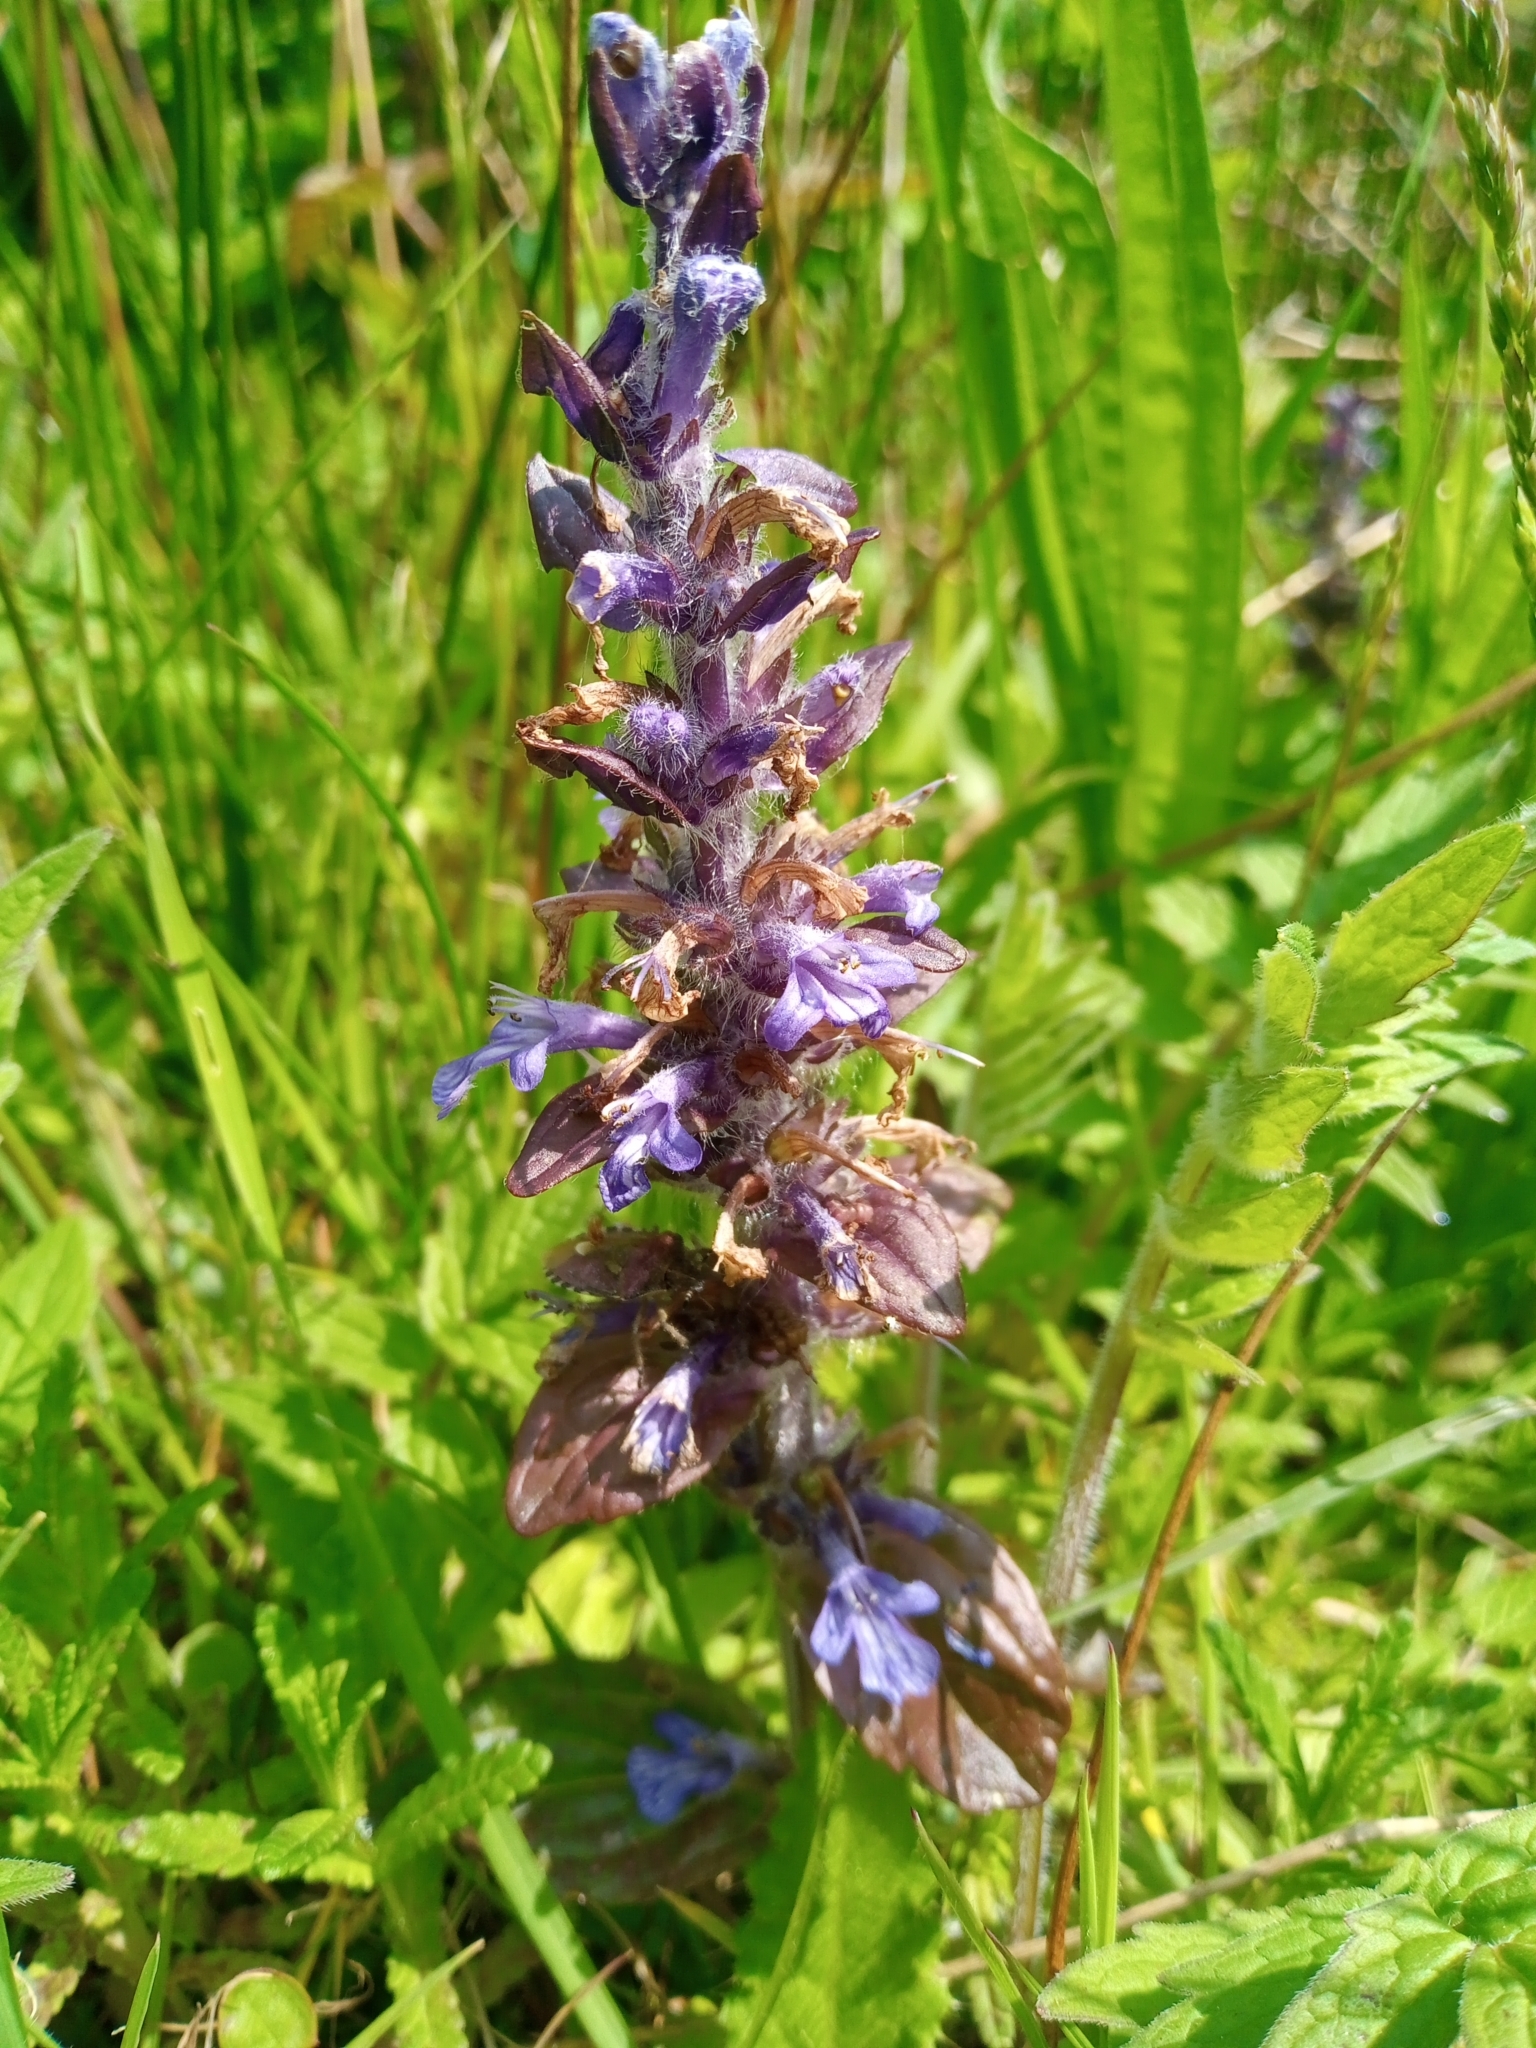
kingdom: Plantae
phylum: Tracheophyta
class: Magnoliopsida
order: Lamiales
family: Lamiaceae
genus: Ajuga
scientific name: Ajuga reptans
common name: Bugle
